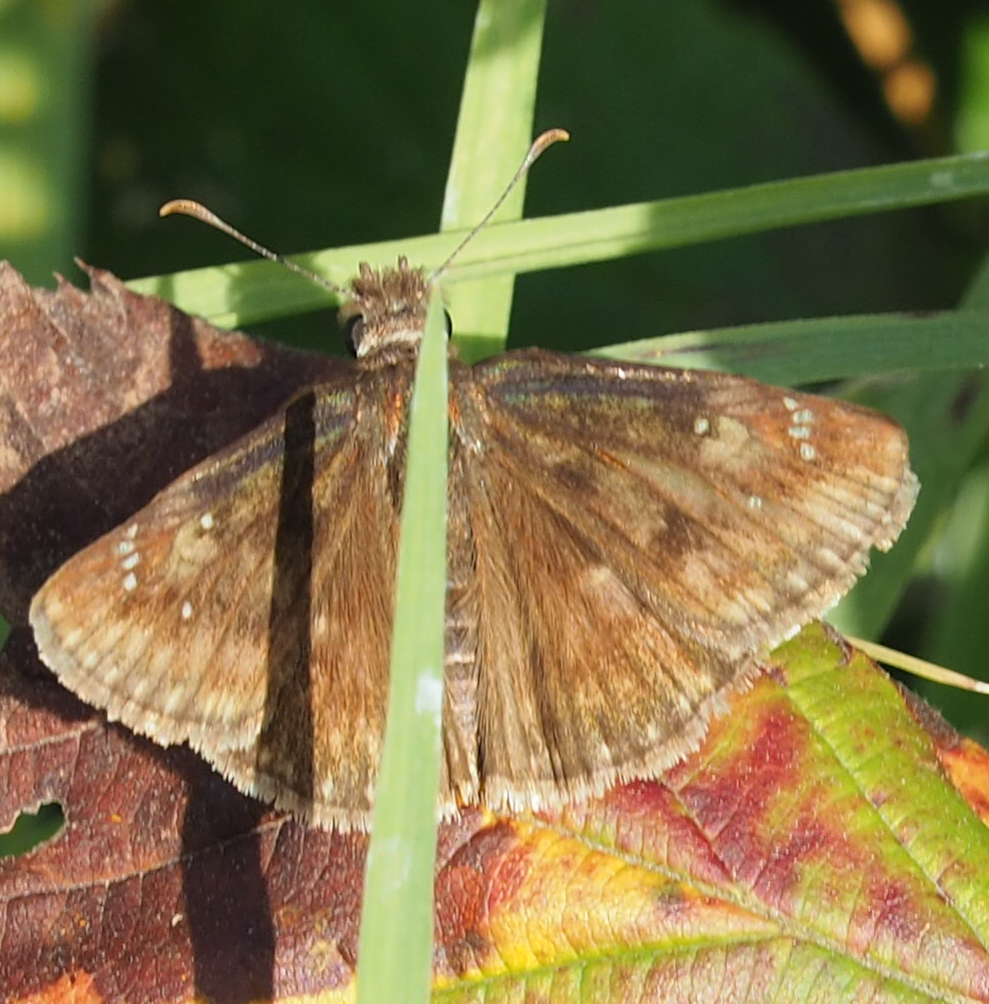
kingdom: Animalia
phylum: Arthropoda
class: Insecta
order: Lepidoptera
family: Hesperiidae
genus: Erynnis
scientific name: Erynnis baptisiae
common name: Wild indigo duskywing
